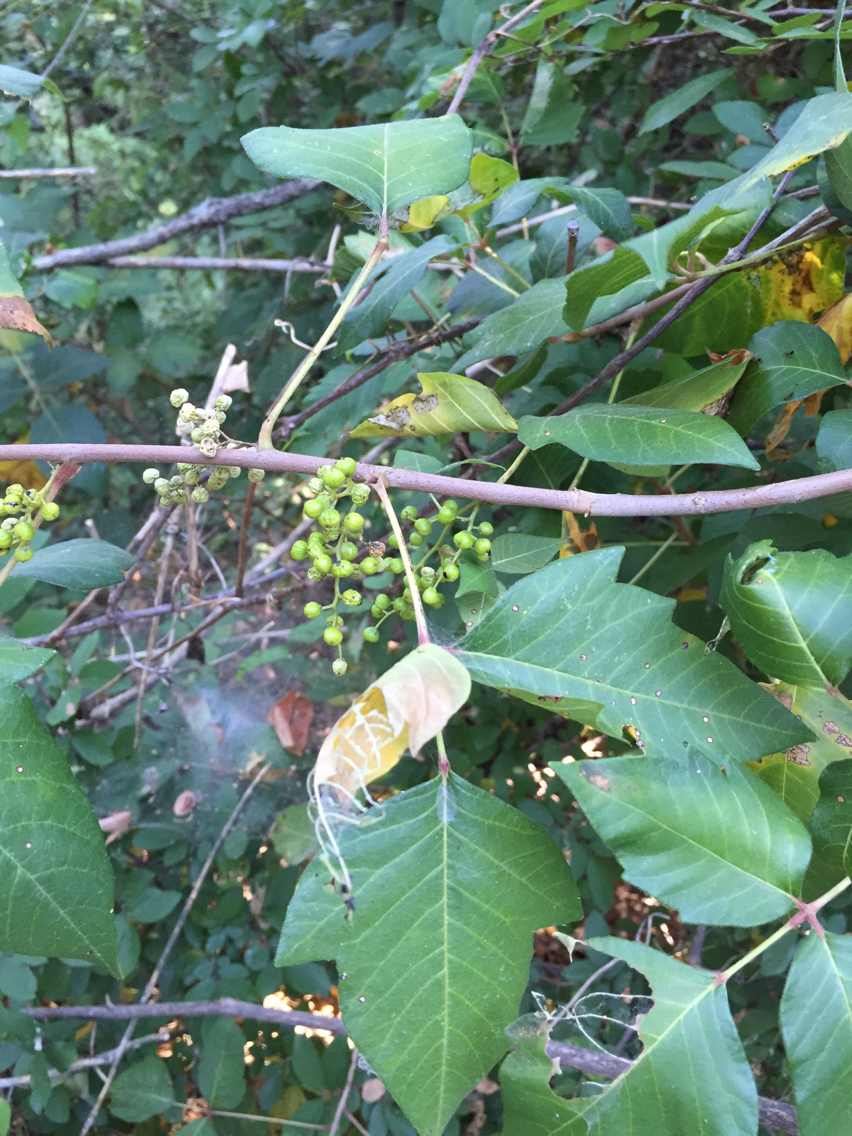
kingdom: Plantae
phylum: Tracheophyta
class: Magnoliopsida
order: Sapindales
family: Anacardiaceae
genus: Toxicodendron
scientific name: Toxicodendron radicans
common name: Poison ivy
